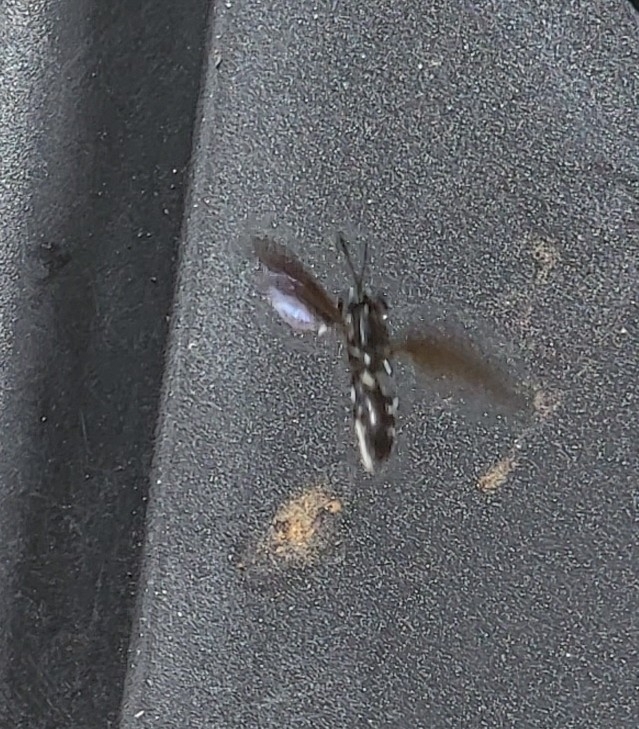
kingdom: Animalia
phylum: Arthropoda
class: Insecta
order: Diptera
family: Stratiomyidae
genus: Hermetia
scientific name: Hermetia illucens
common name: Black soldier fly
